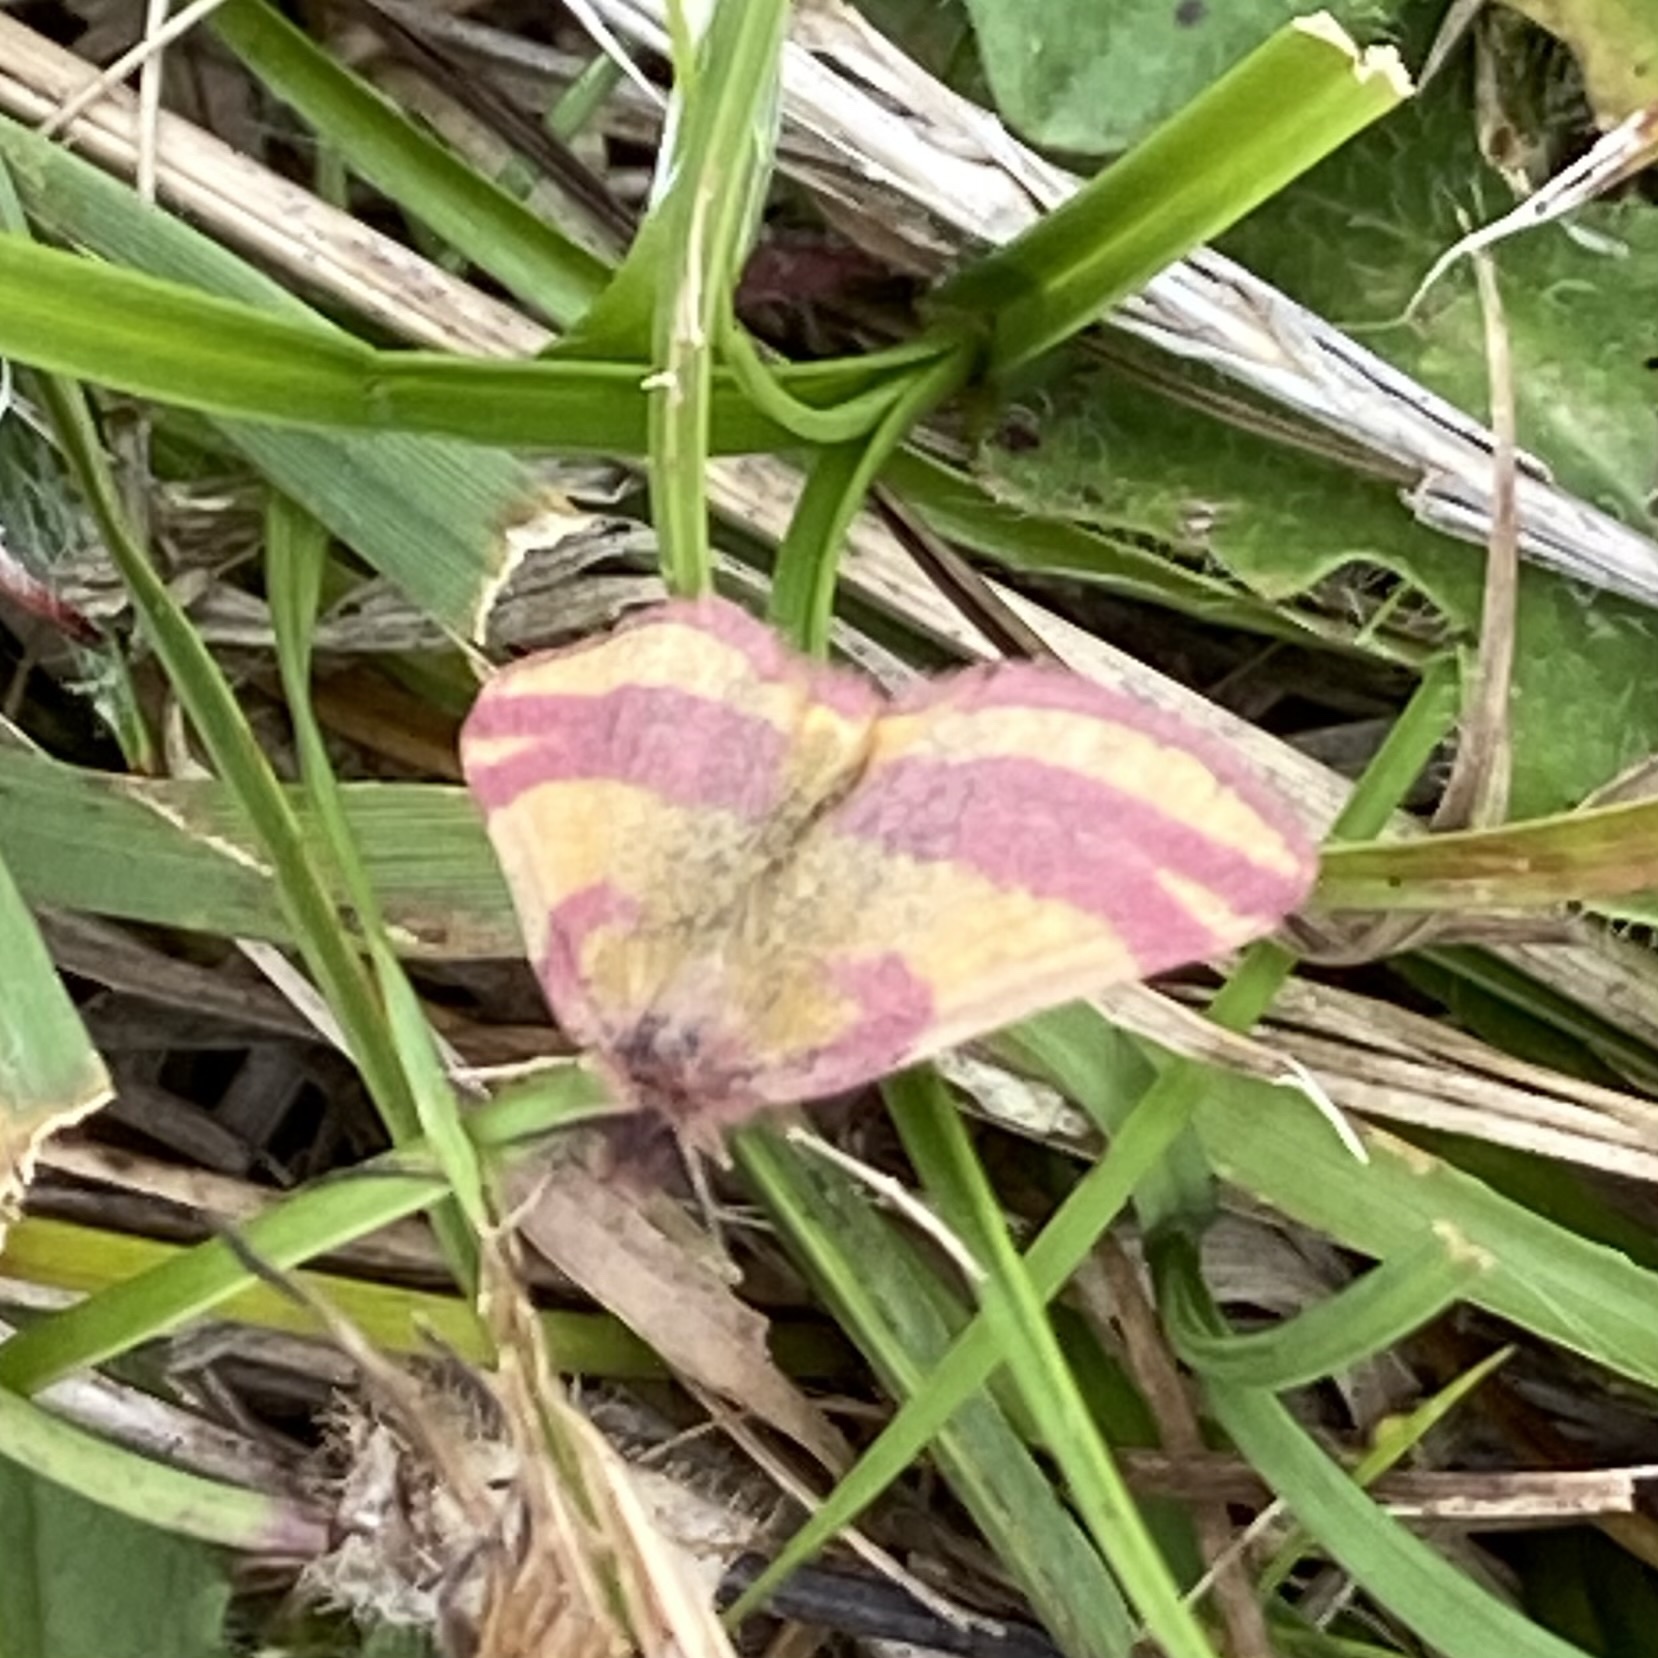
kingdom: Animalia
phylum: Arthropoda
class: Insecta
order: Lepidoptera
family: Geometridae
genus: Lythria
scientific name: Lythria cruentaria
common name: Purple-barred yellow
